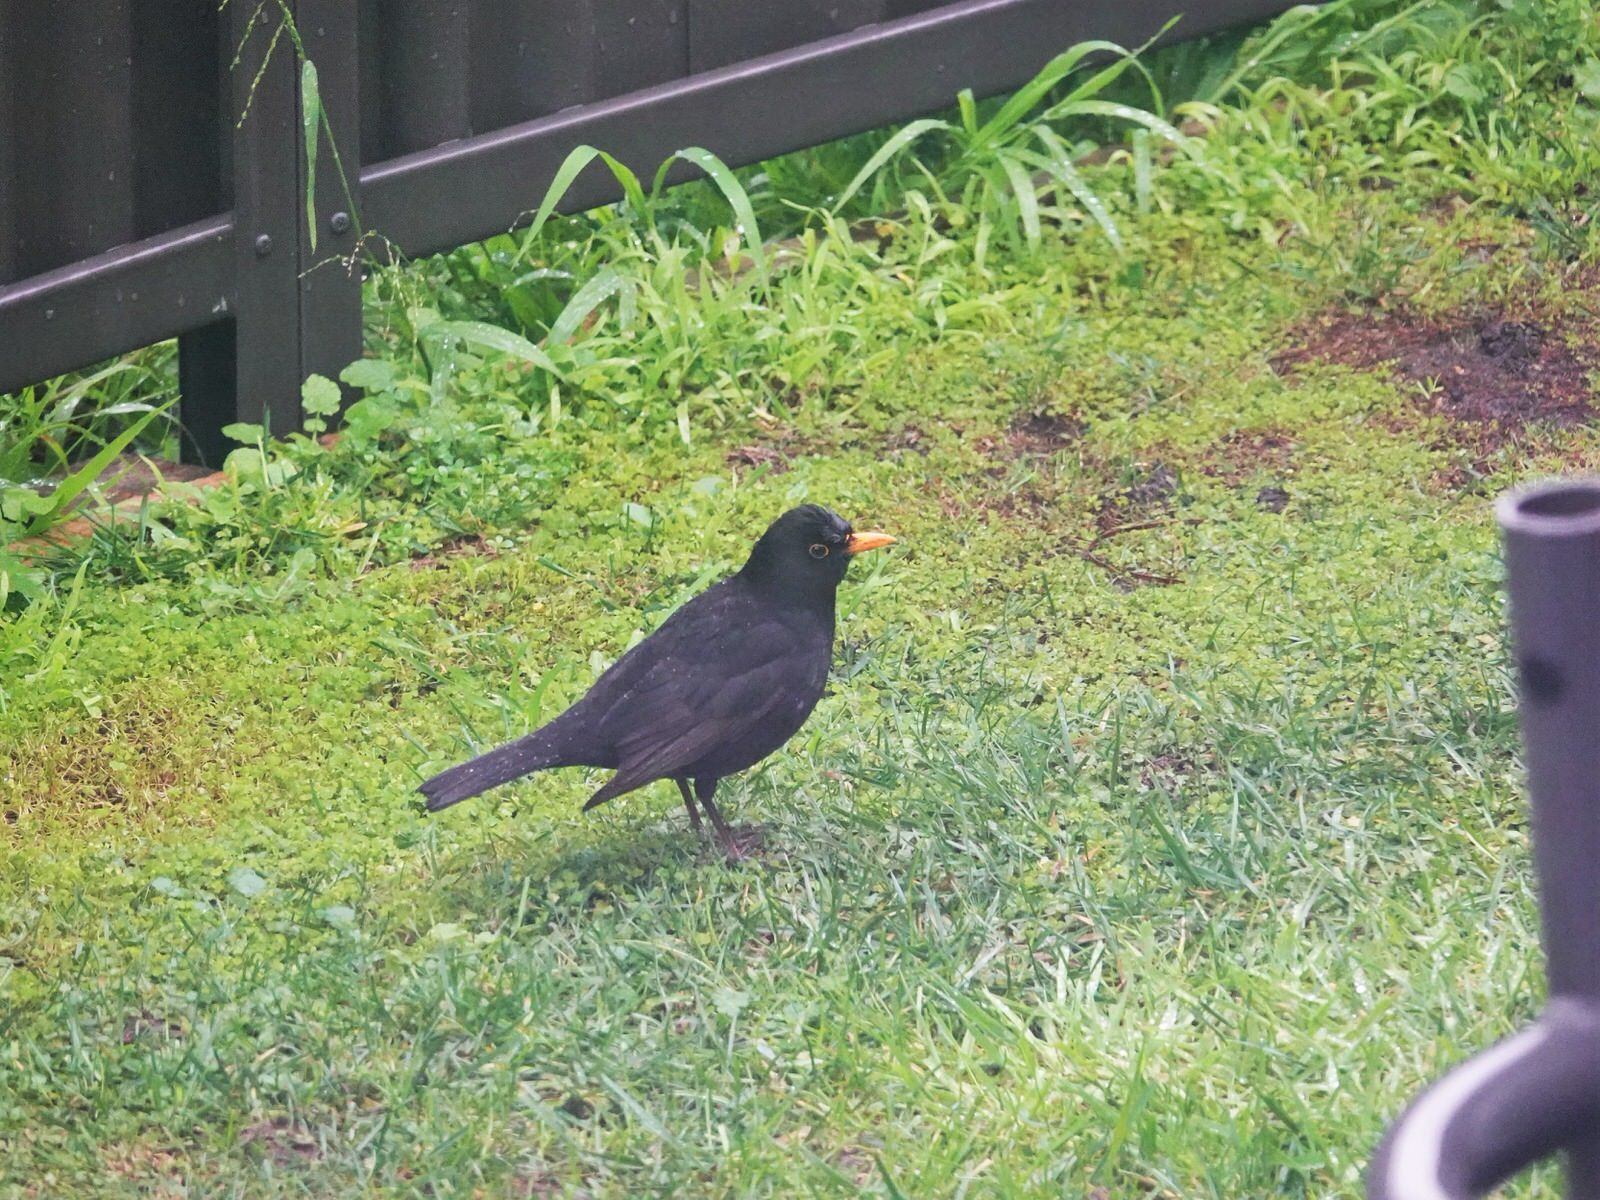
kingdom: Animalia
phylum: Chordata
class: Aves
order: Passeriformes
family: Turdidae
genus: Turdus
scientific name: Turdus merula
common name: Common blackbird
